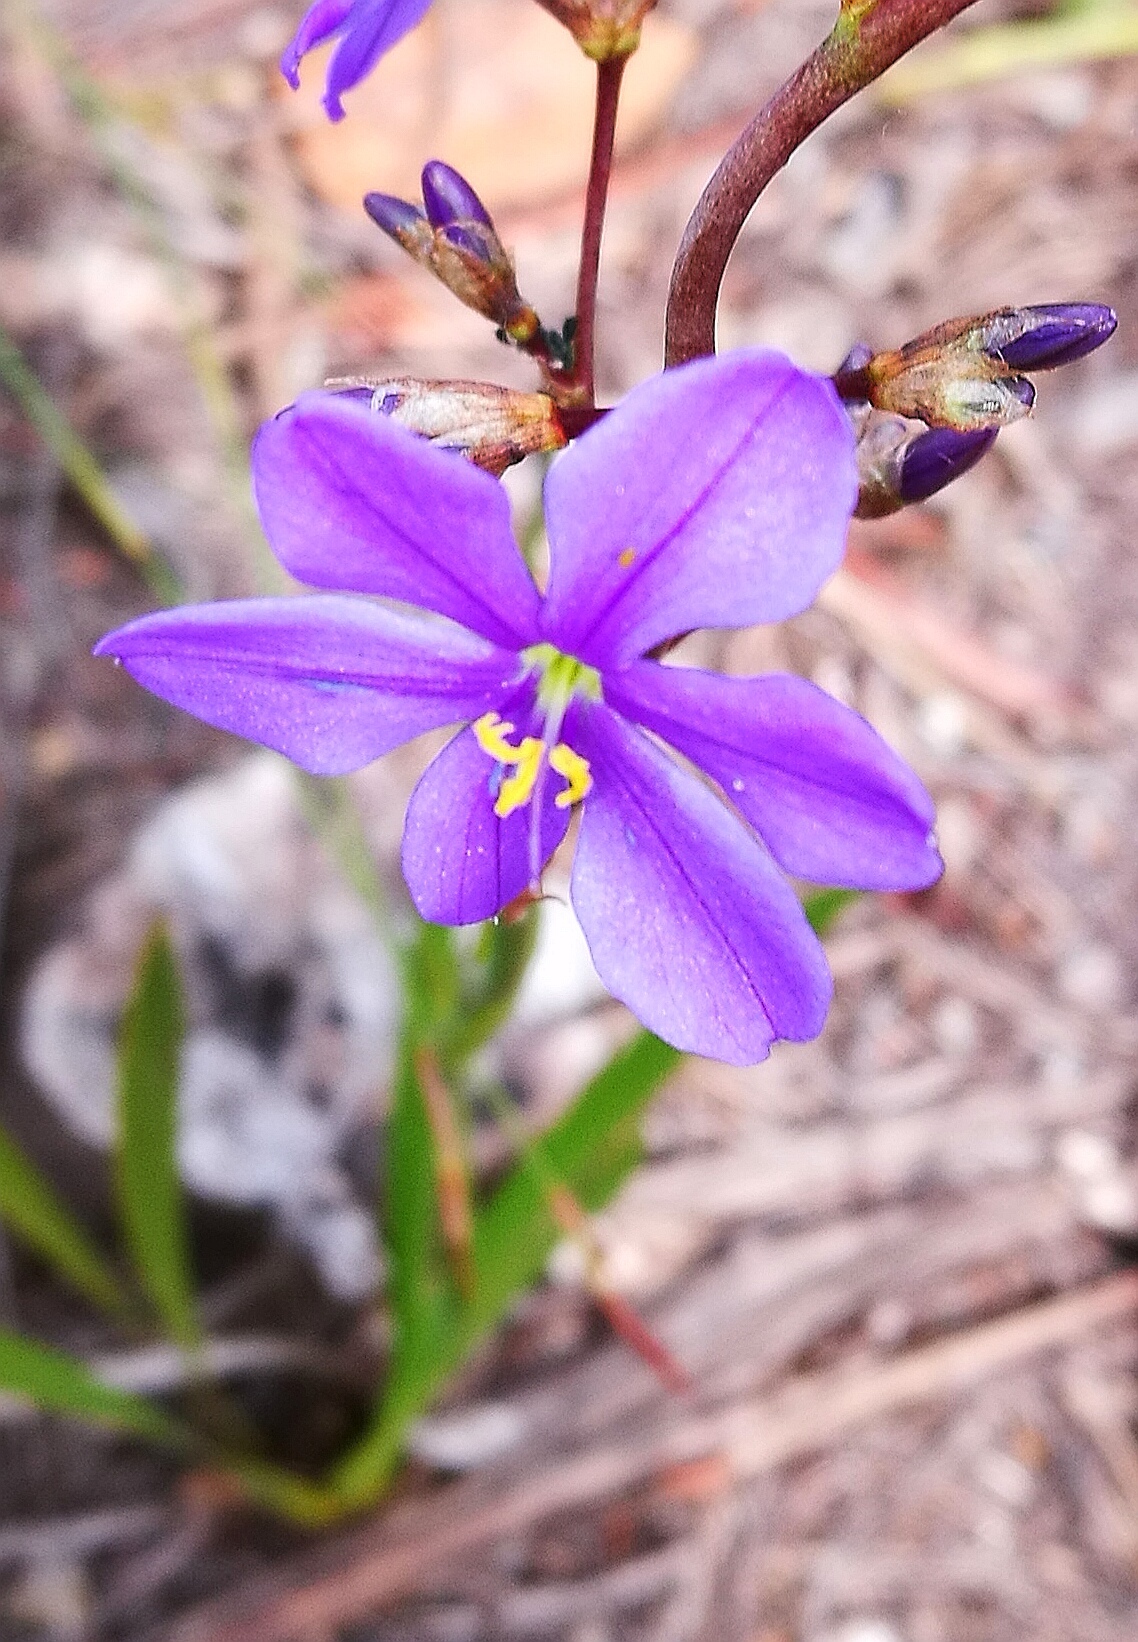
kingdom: Plantae
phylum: Tracheophyta
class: Liliopsida
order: Asparagales
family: Iridaceae
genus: Aristea
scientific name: Aristea pusilla
